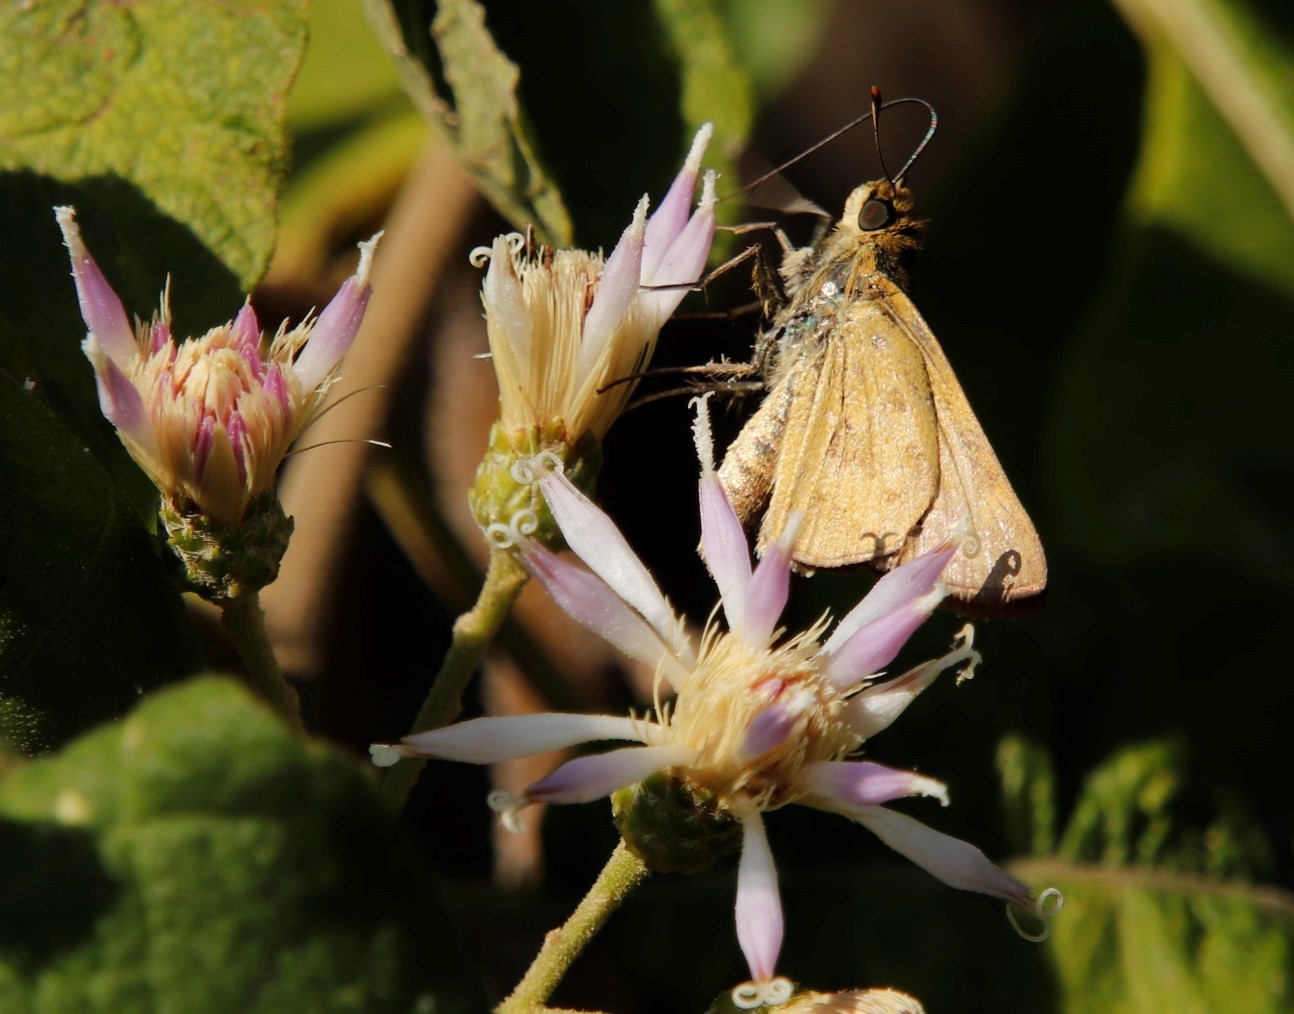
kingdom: Animalia
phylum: Arthropoda
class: Insecta
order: Hymenoptera
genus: Afrogenes
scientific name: Afrogenes
